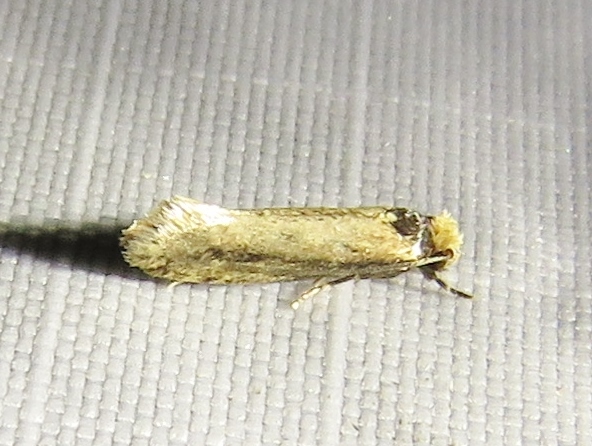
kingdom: Animalia
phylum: Arthropoda
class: Insecta
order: Lepidoptera
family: Meessiidae
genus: Homostinea
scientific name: Homostinea curviliniella
